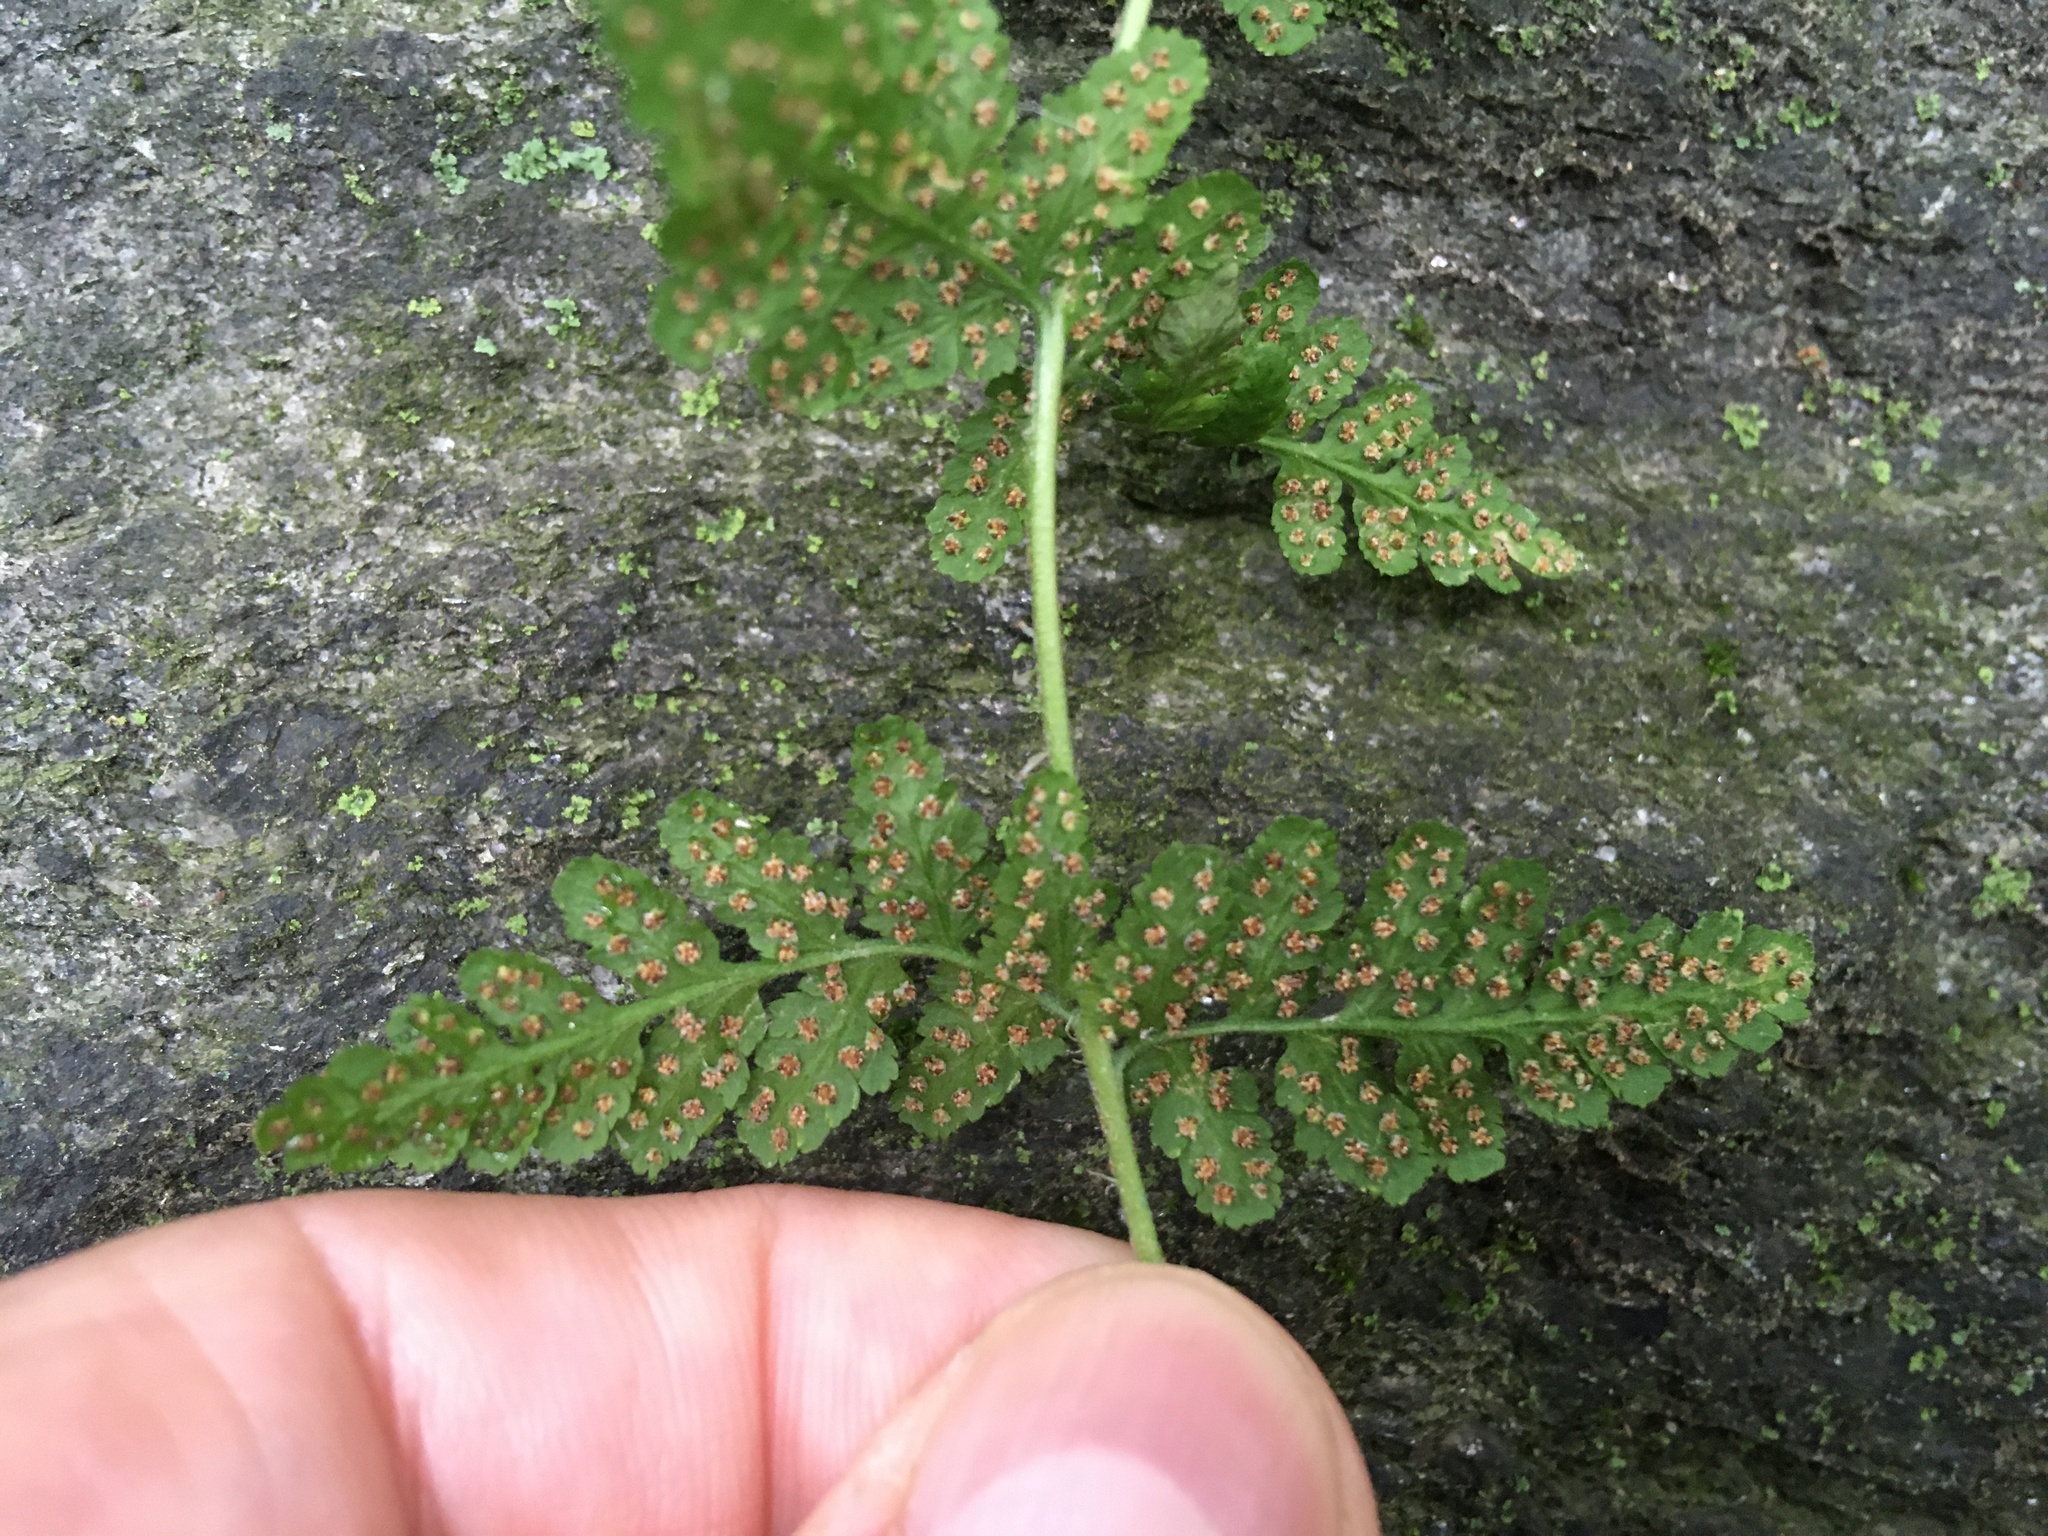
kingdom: Plantae
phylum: Tracheophyta
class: Polypodiopsida
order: Polypodiales
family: Woodsiaceae
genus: Physematium
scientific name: Physematium obtusum
